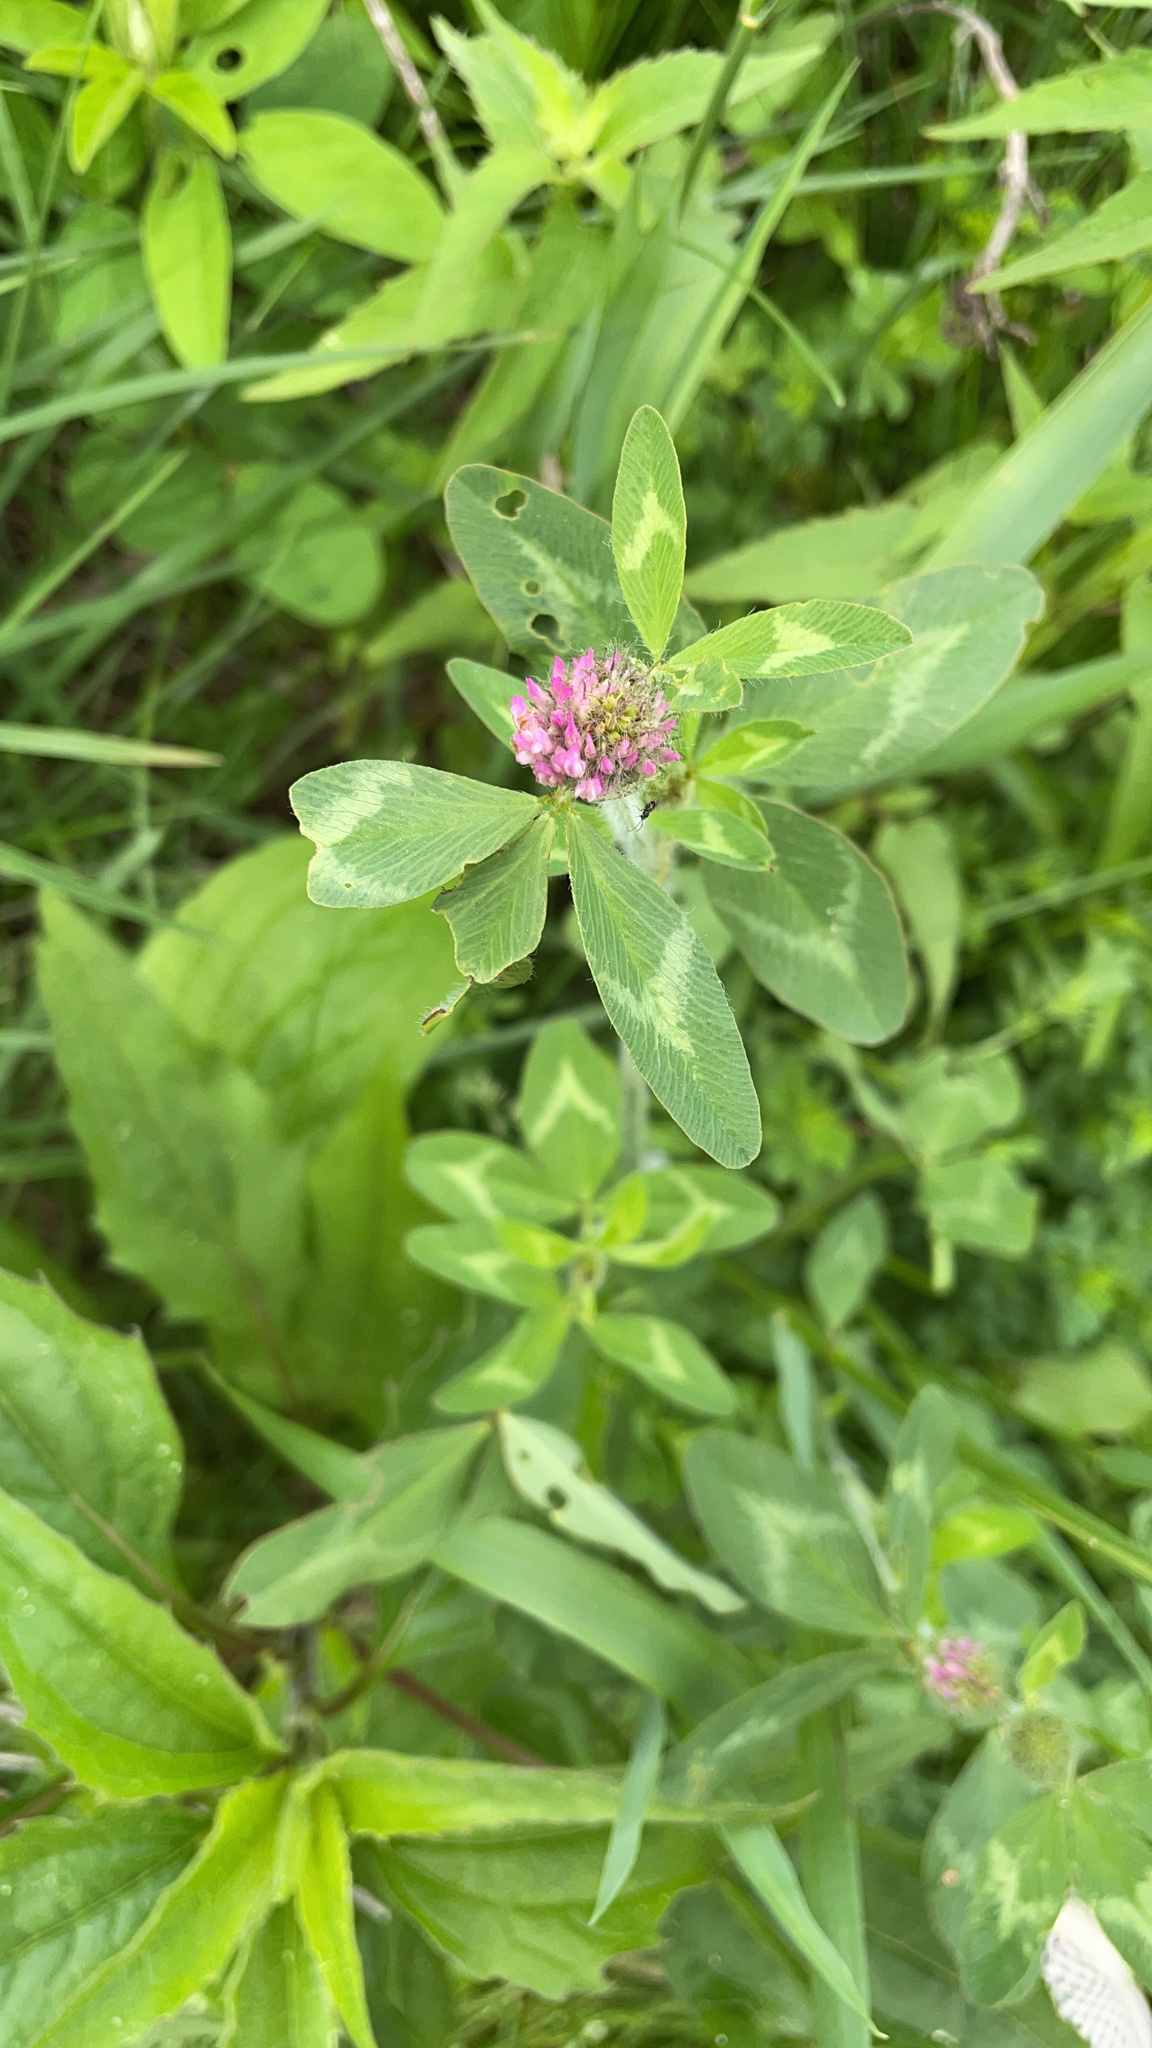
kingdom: Plantae
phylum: Tracheophyta
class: Magnoliopsida
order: Fabales
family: Fabaceae
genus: Trifolium
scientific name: Trifolium pratense
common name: Red clover
